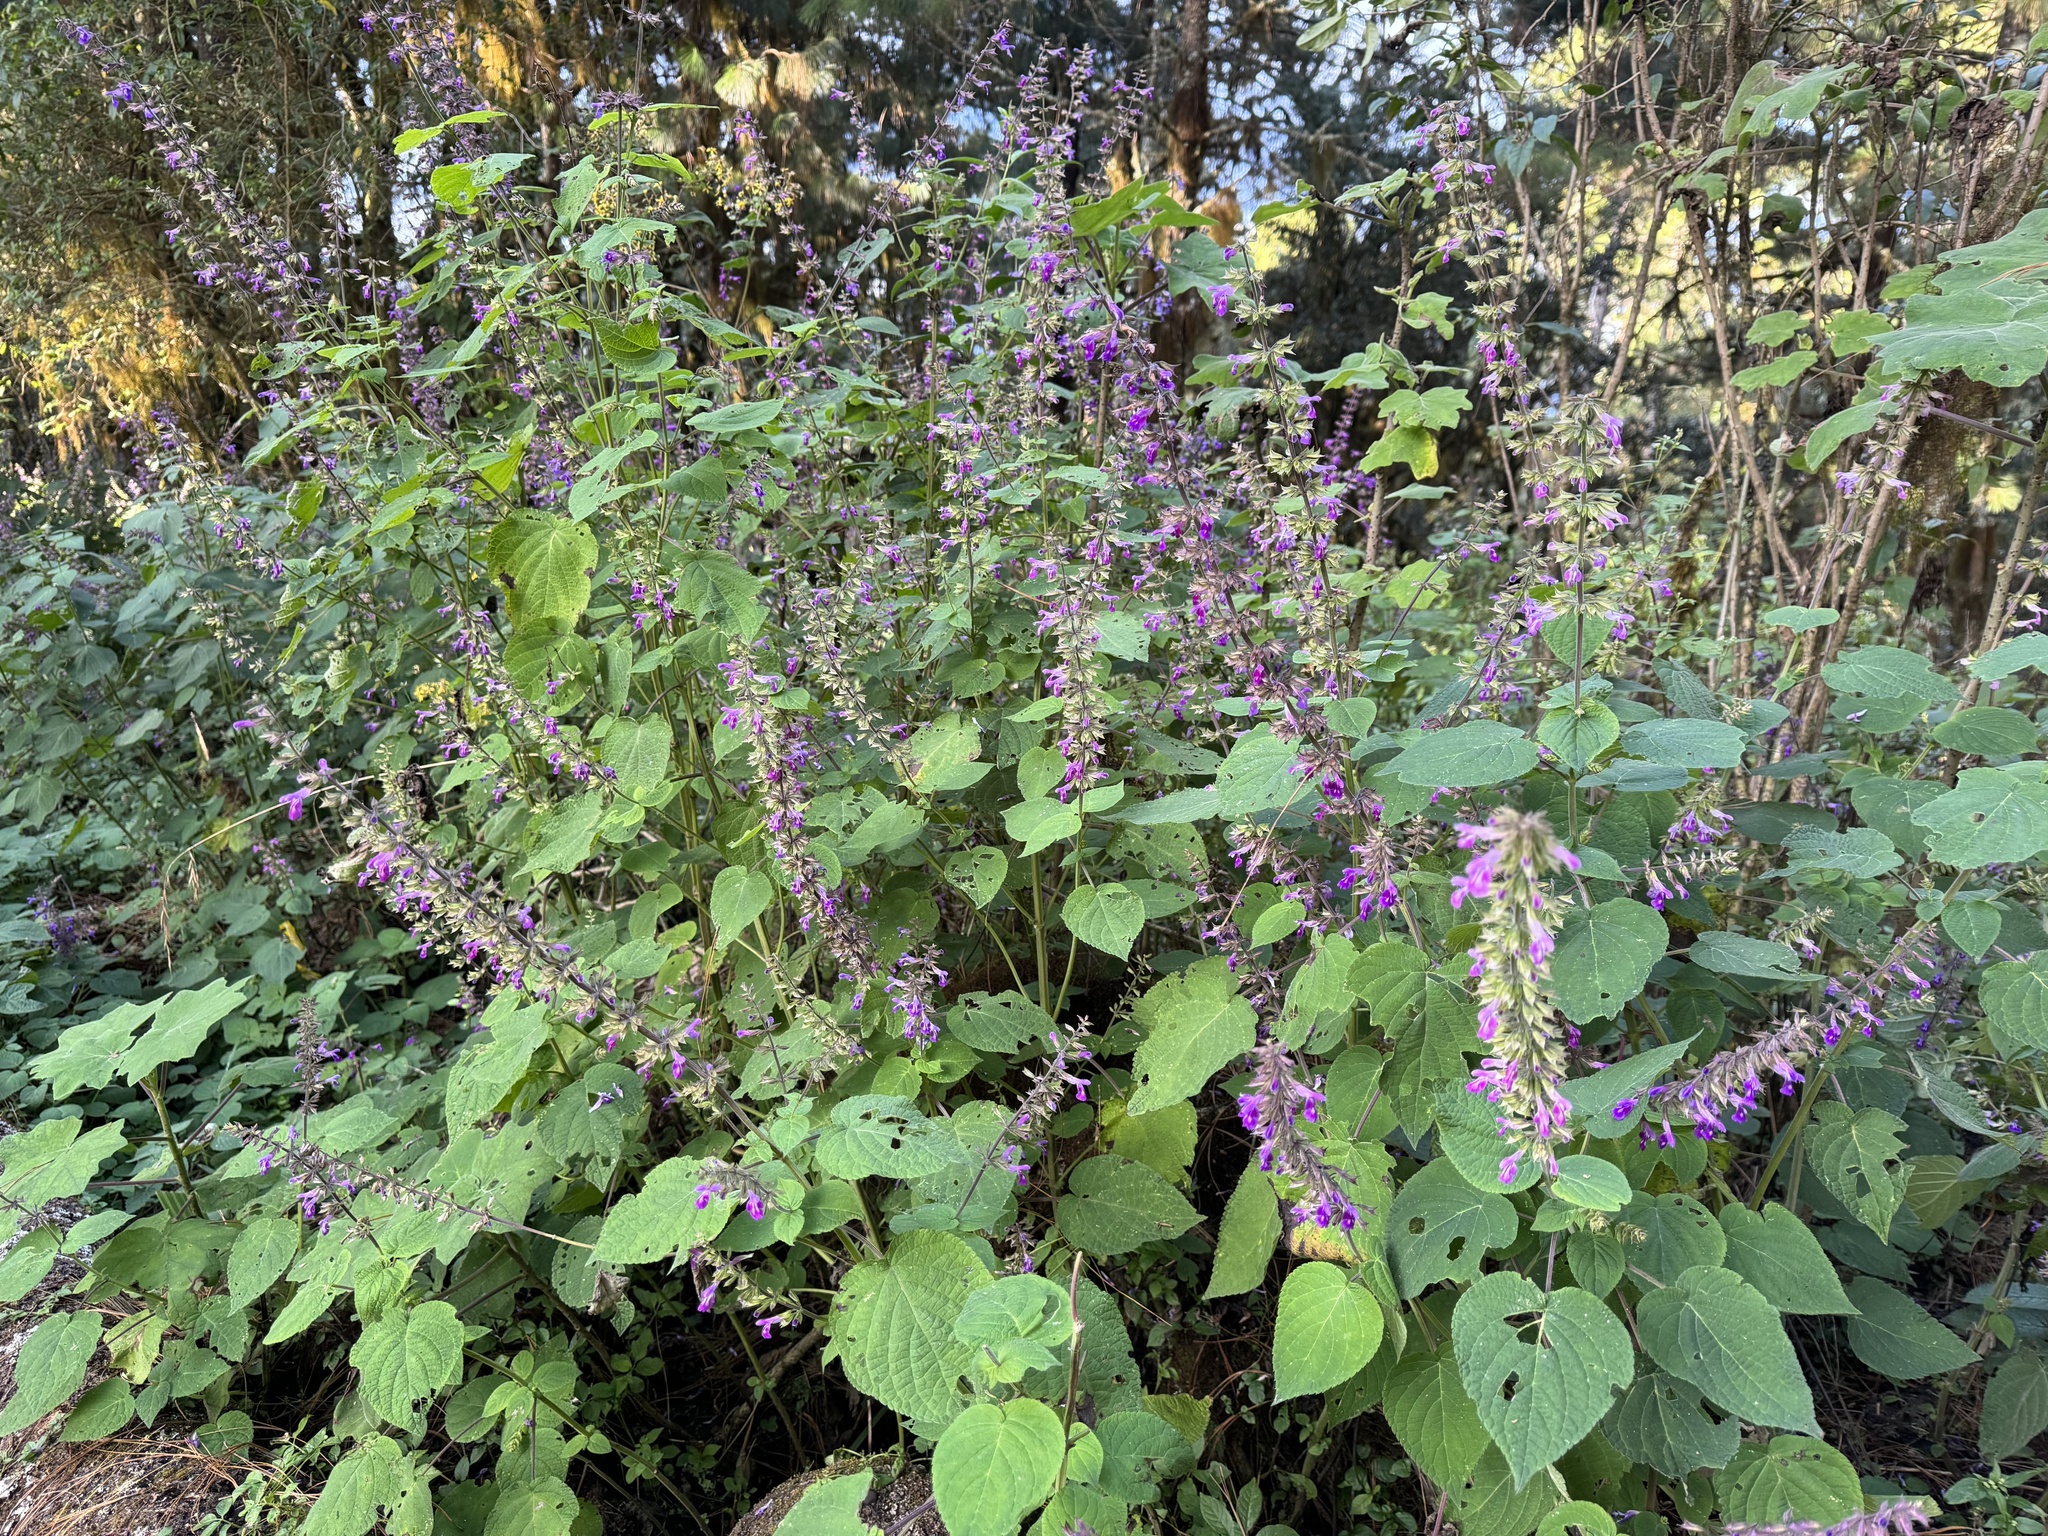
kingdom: Plantae
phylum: Tracheophyta
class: Magnoliopsida
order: Lamiales
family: Lamiaceae
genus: Salvia
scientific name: Salvia carnea
